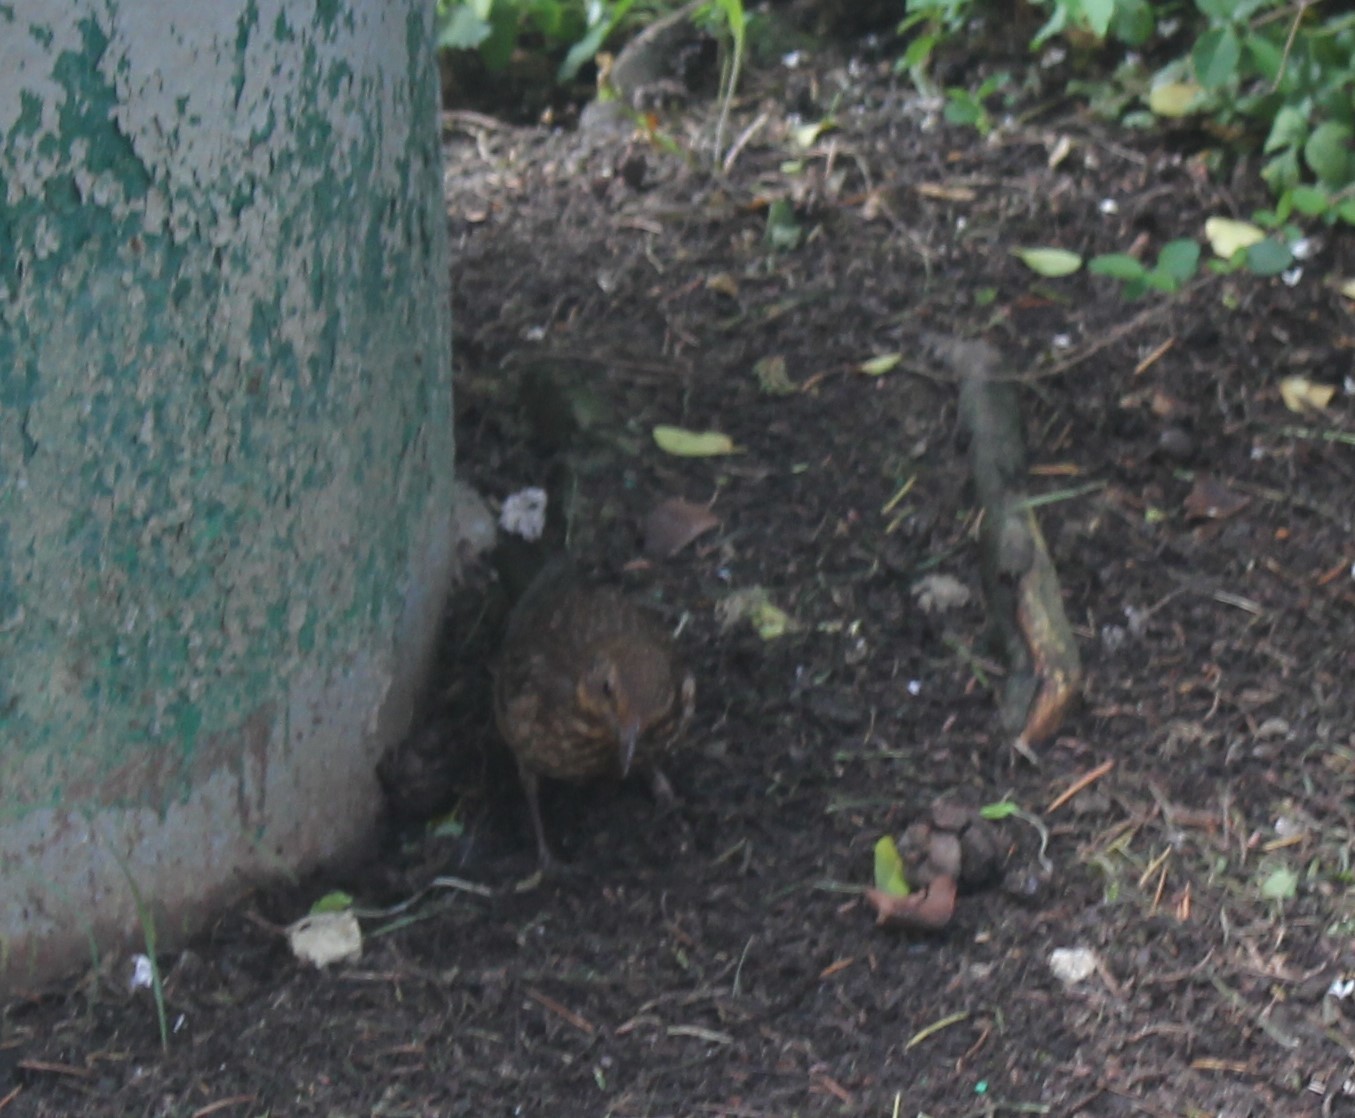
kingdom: Animalia
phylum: Chordata
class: Aves
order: Passeriformes
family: Turdidae
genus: Turdus
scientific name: Turdus merula
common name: Common blackbird
